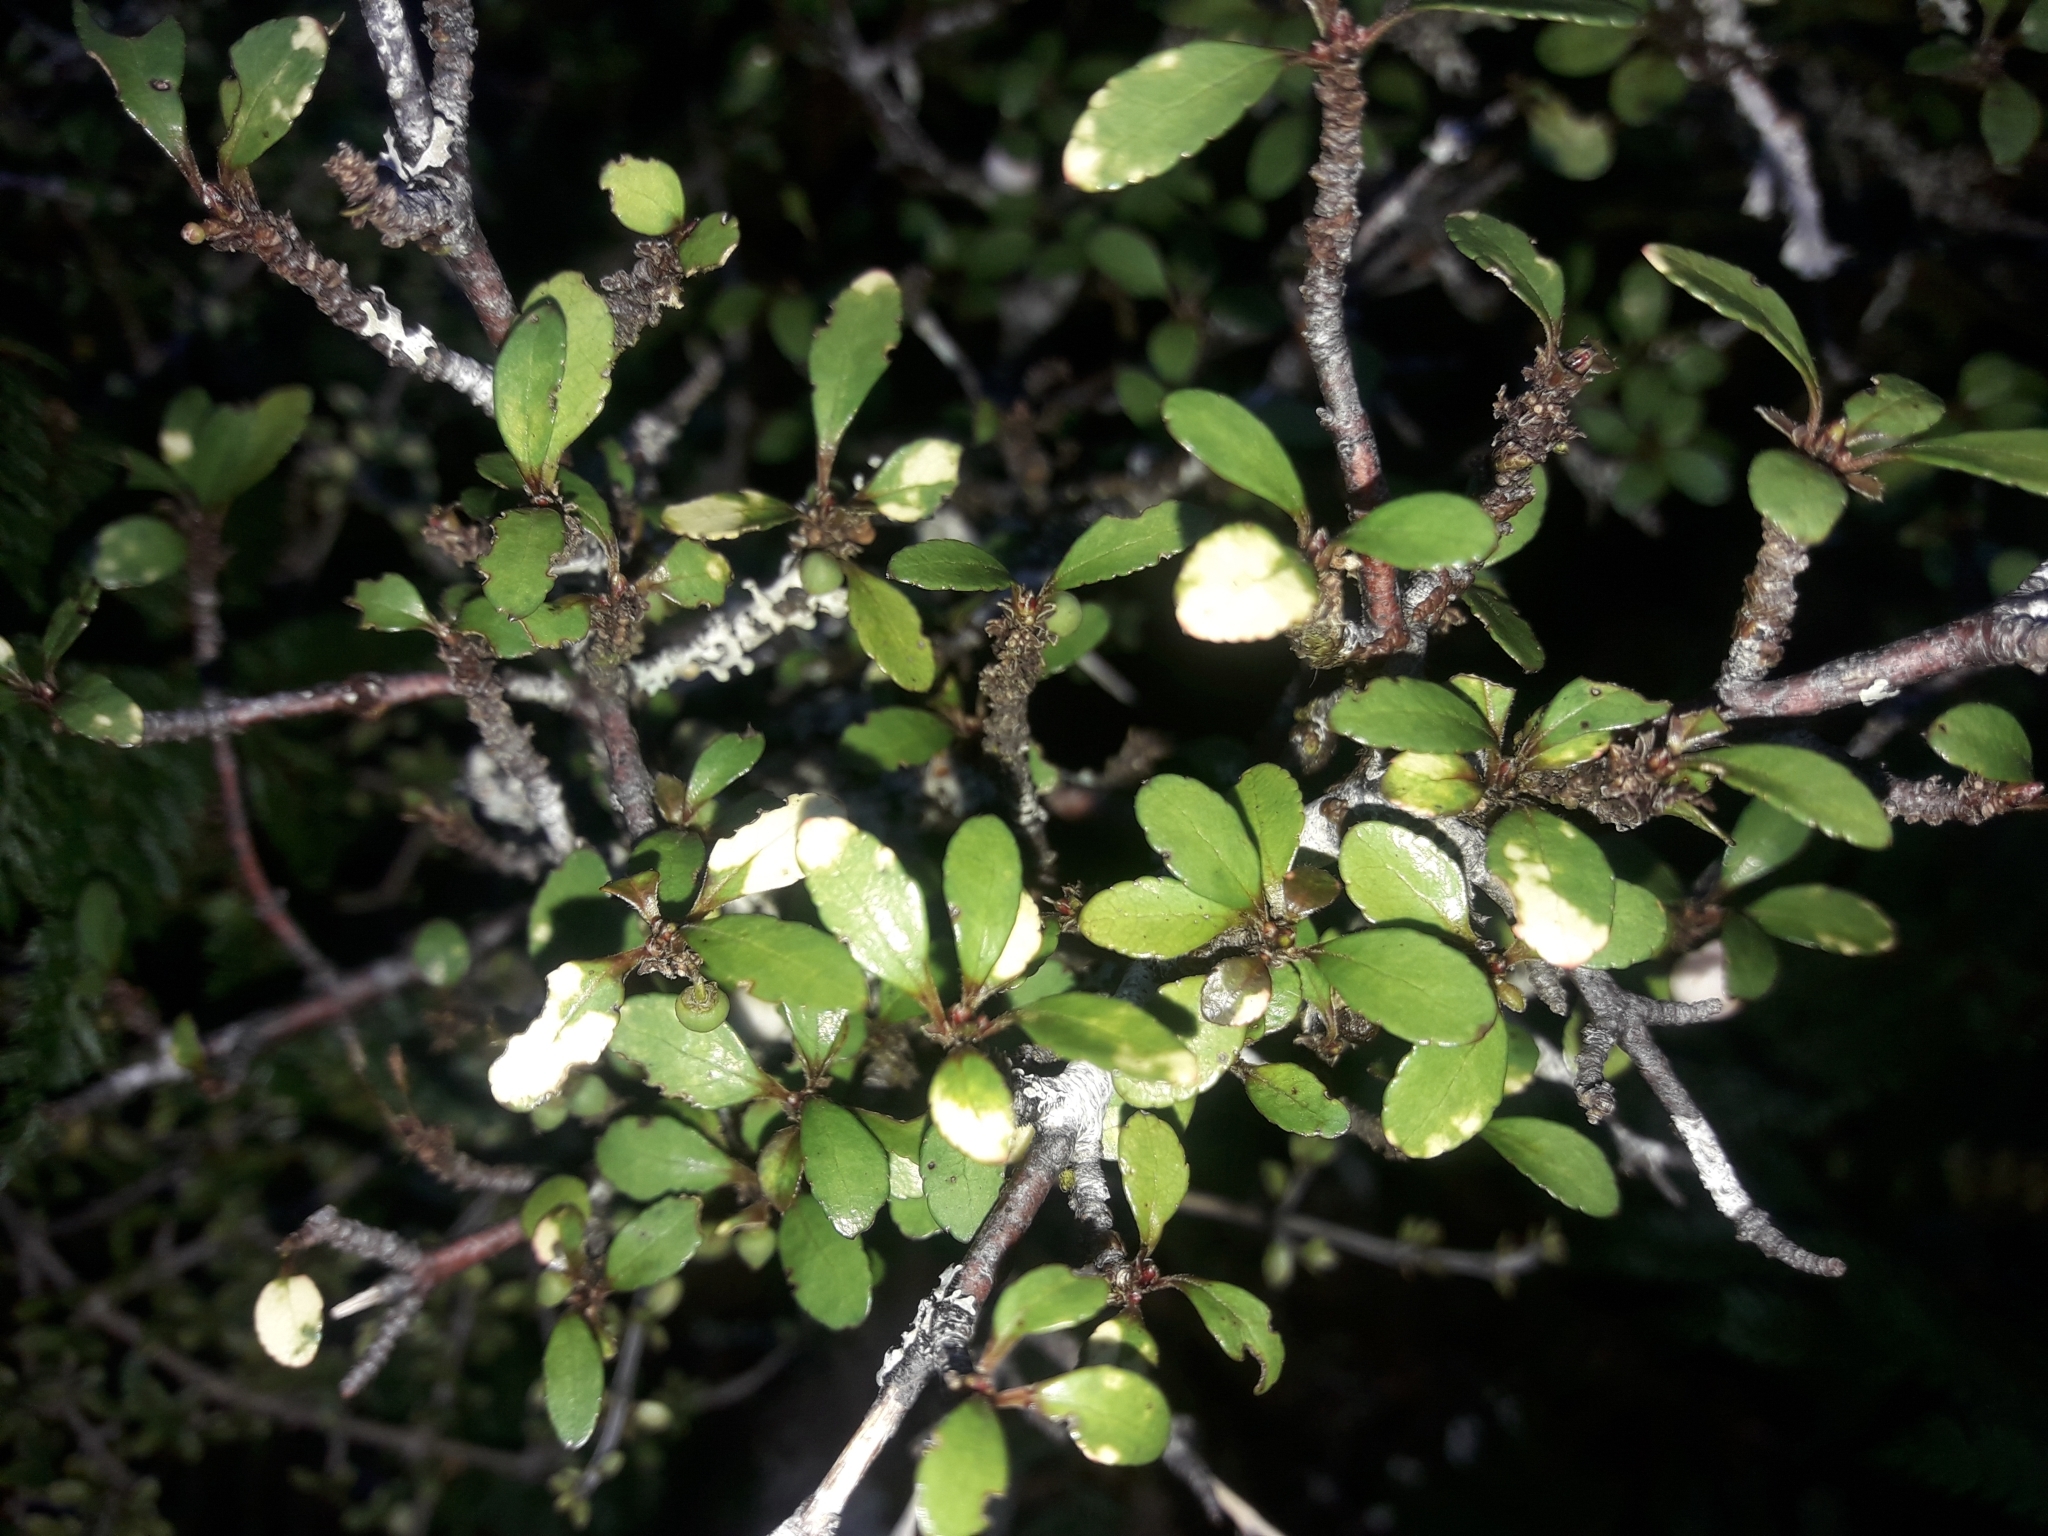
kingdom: Plantae
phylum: Tracheophyta
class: Magnoliopsida
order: Oxalidales
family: Elaeocarpaceae
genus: Aristotelia
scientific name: Aristotelia fruticosa
